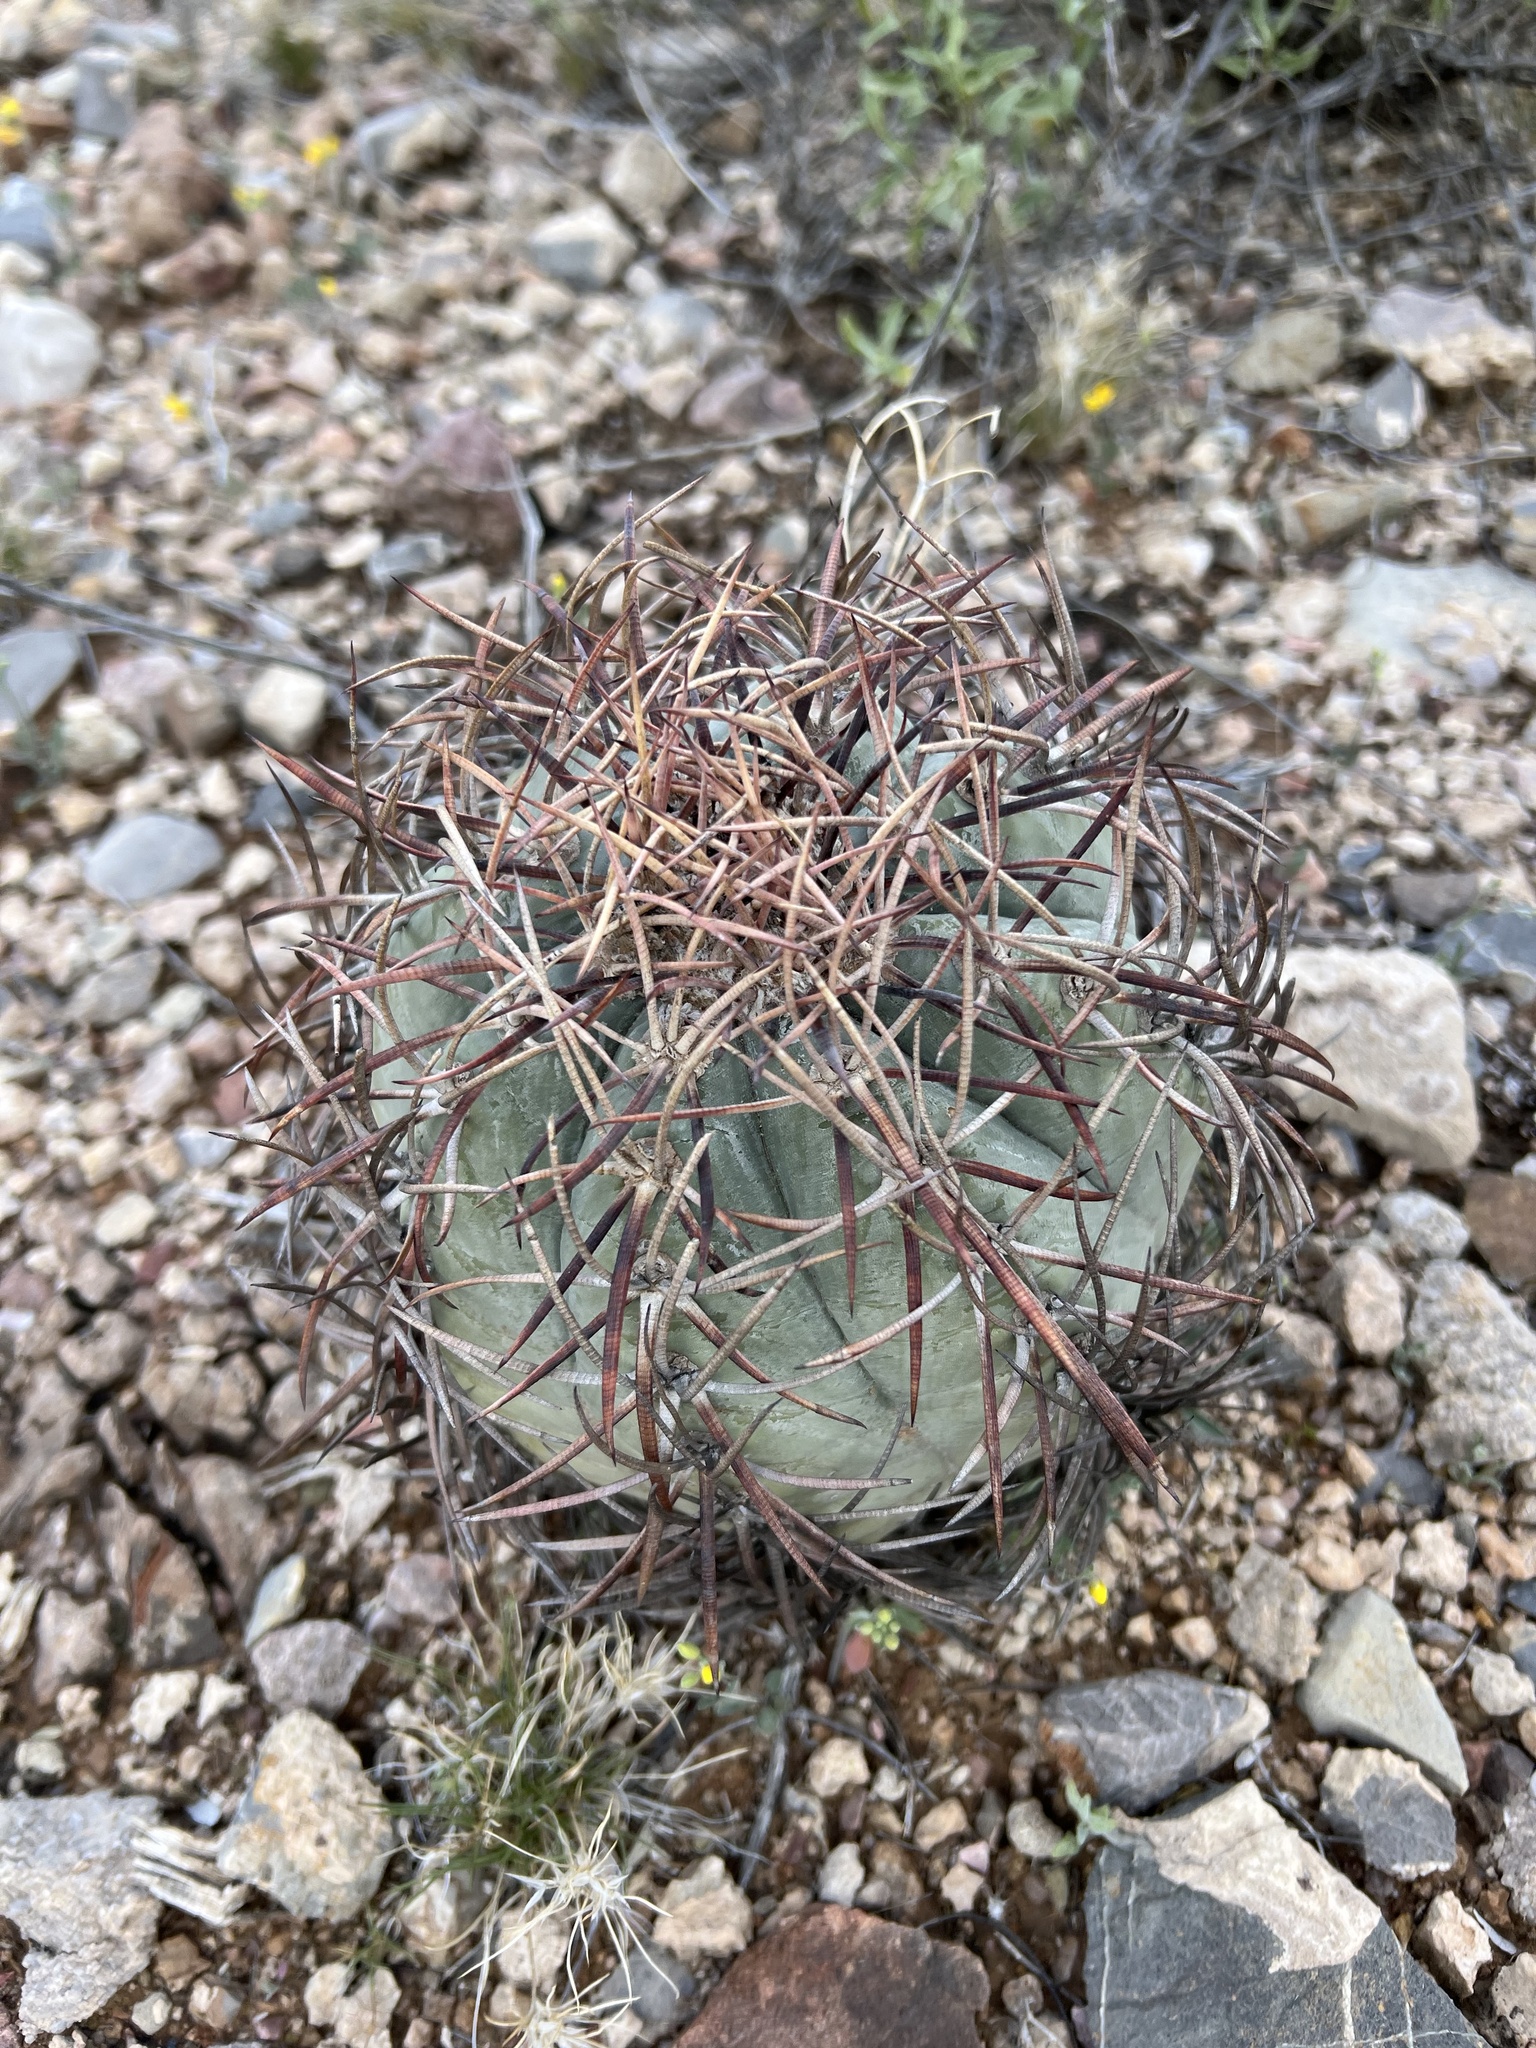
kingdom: Plantae
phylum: Tracheophyta
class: Magnoliopsida
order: Caryophyllales
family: Cactaceae
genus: Echinocactus
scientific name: Echinocactus horizonthalonius
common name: Devilshead
